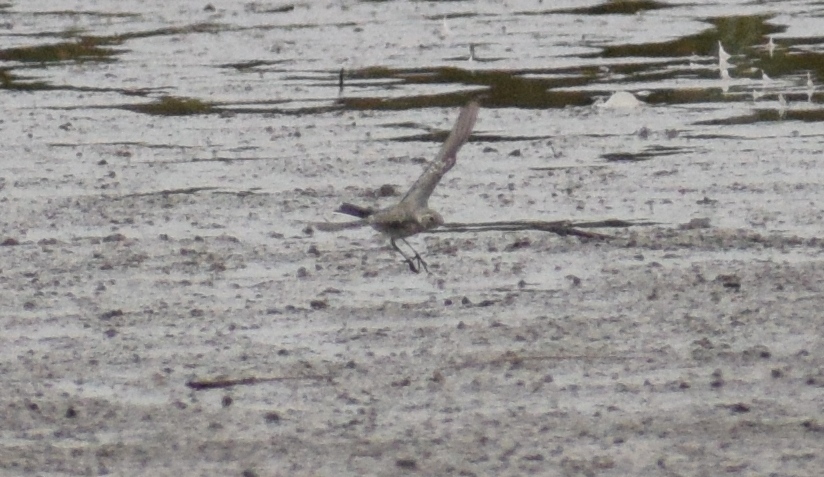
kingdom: Animalia
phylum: Chordata
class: Aves
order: Passeriformes
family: Motacillidae
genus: Motacilla
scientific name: Motacilla alba
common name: White wagtail
